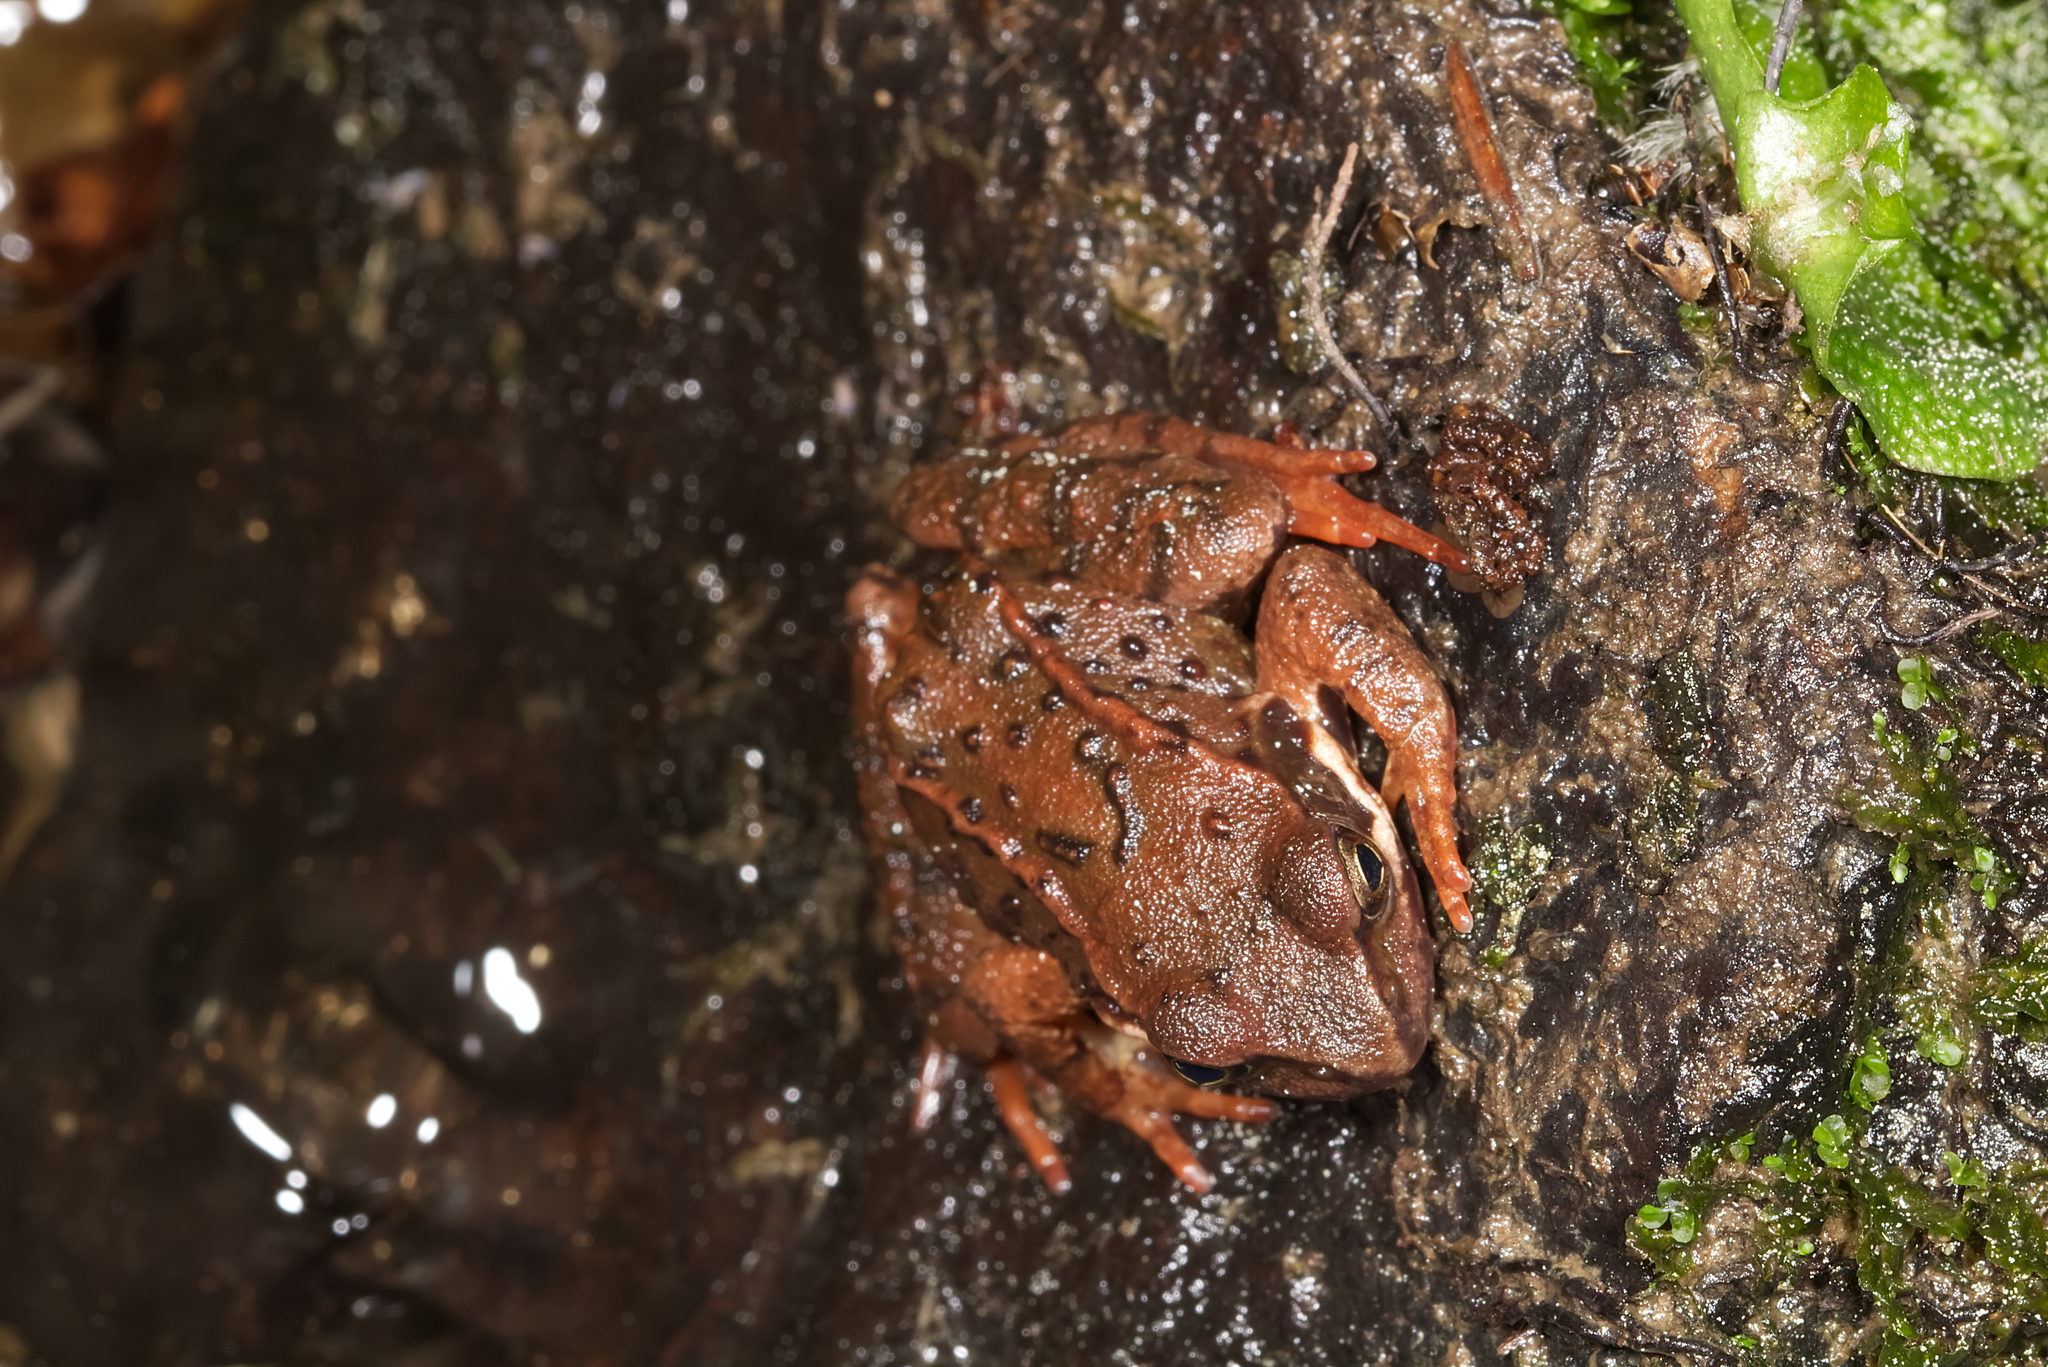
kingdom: Animalia
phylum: Chordata
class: Amphibia
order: Anura
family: Ranidae
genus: Rana
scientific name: Rana temporaria
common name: Common frog
